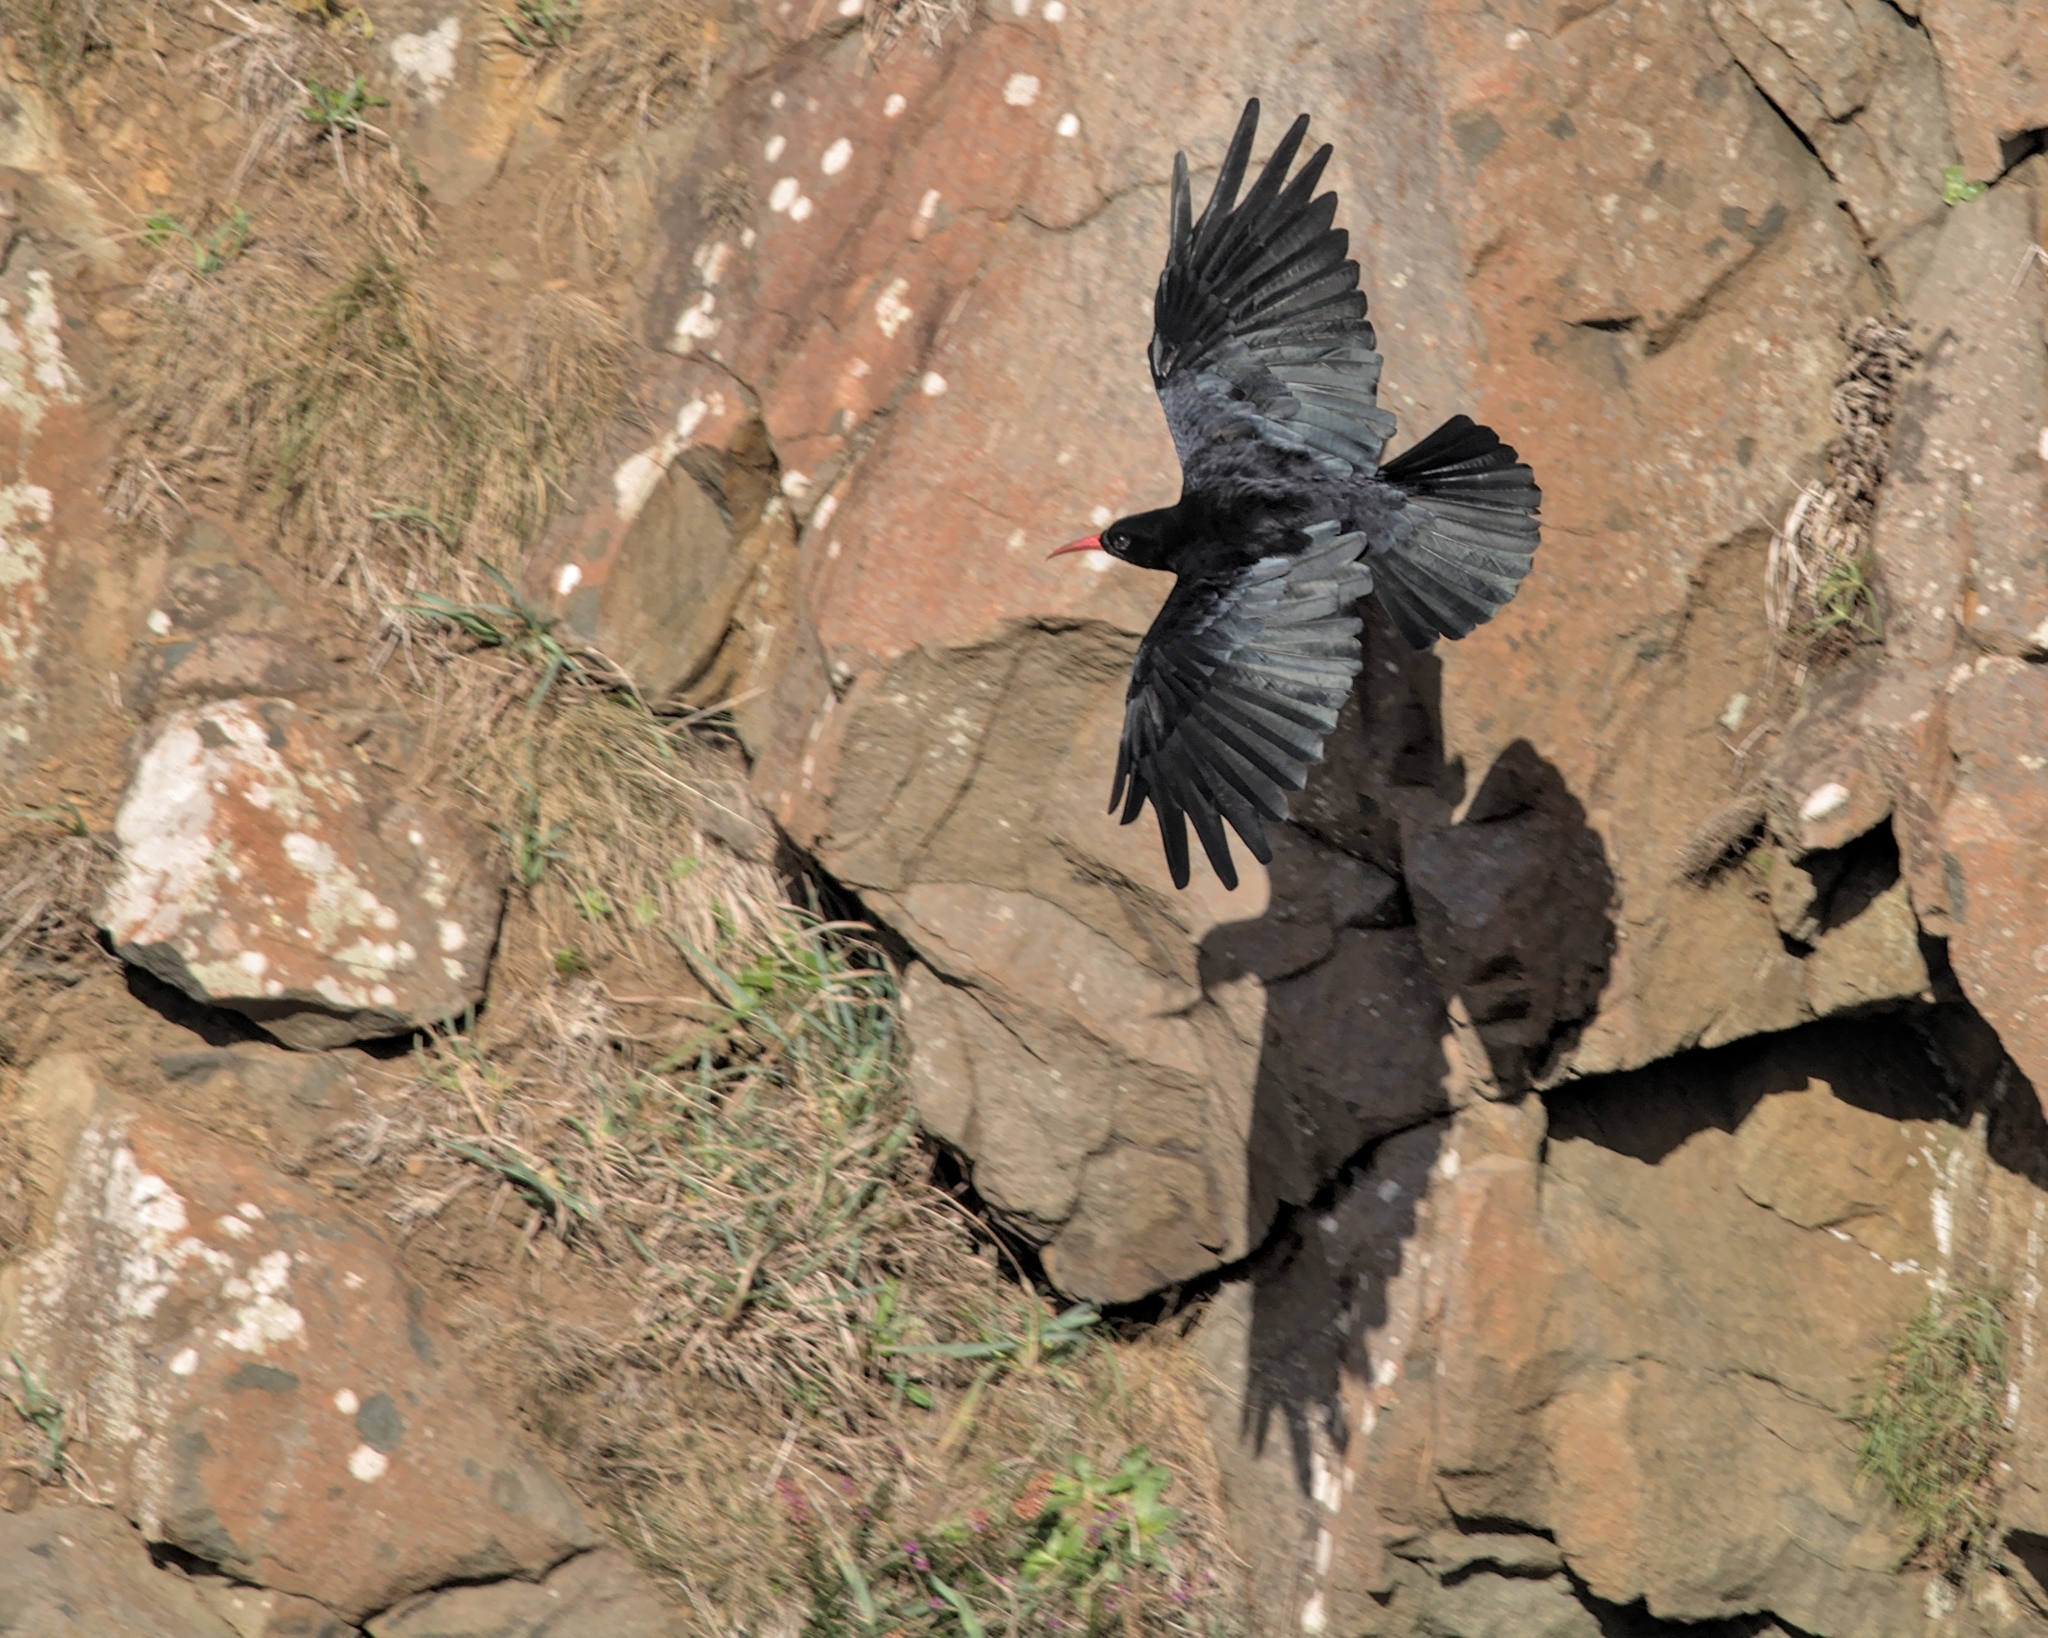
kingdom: Animalia
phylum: Chordata
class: Aves
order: Passeriformes
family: Corvidae
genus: Pyrrhocorax
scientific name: Pyrrhocorax pyrrhocorax
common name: Red-billed chough
